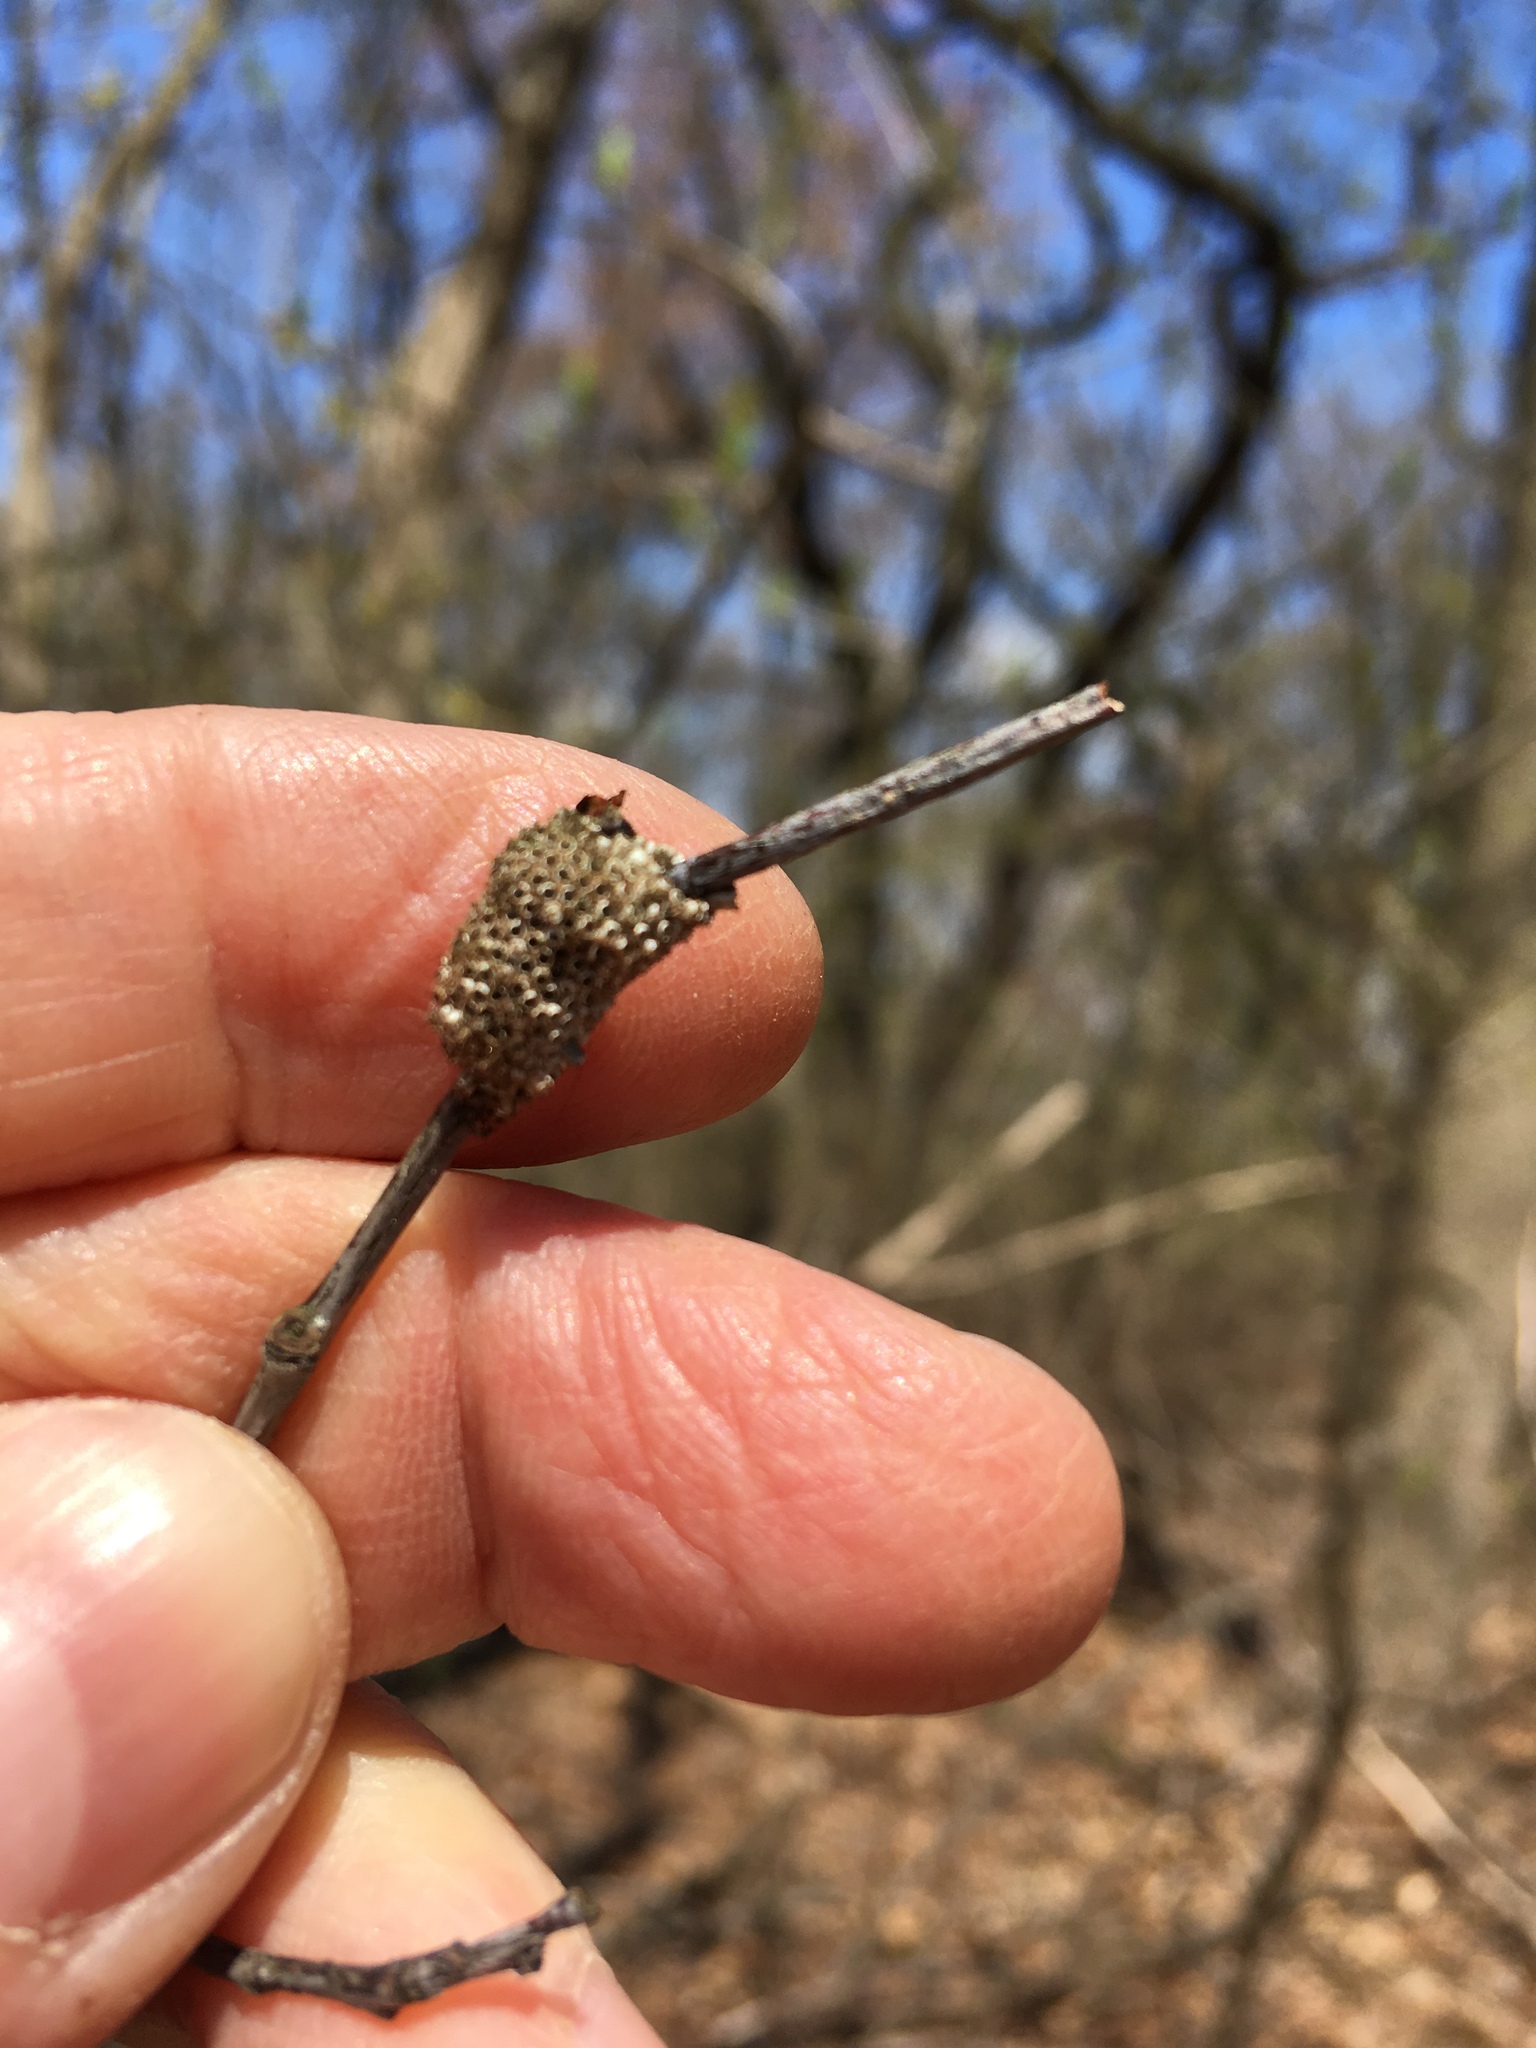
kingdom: Animalia
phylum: Arthropoda
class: Insecta
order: Lepidoptera
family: Lasiocampidae
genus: Malacosoma
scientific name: Malacosoma americana
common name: Eastern tent caterpillar moth
